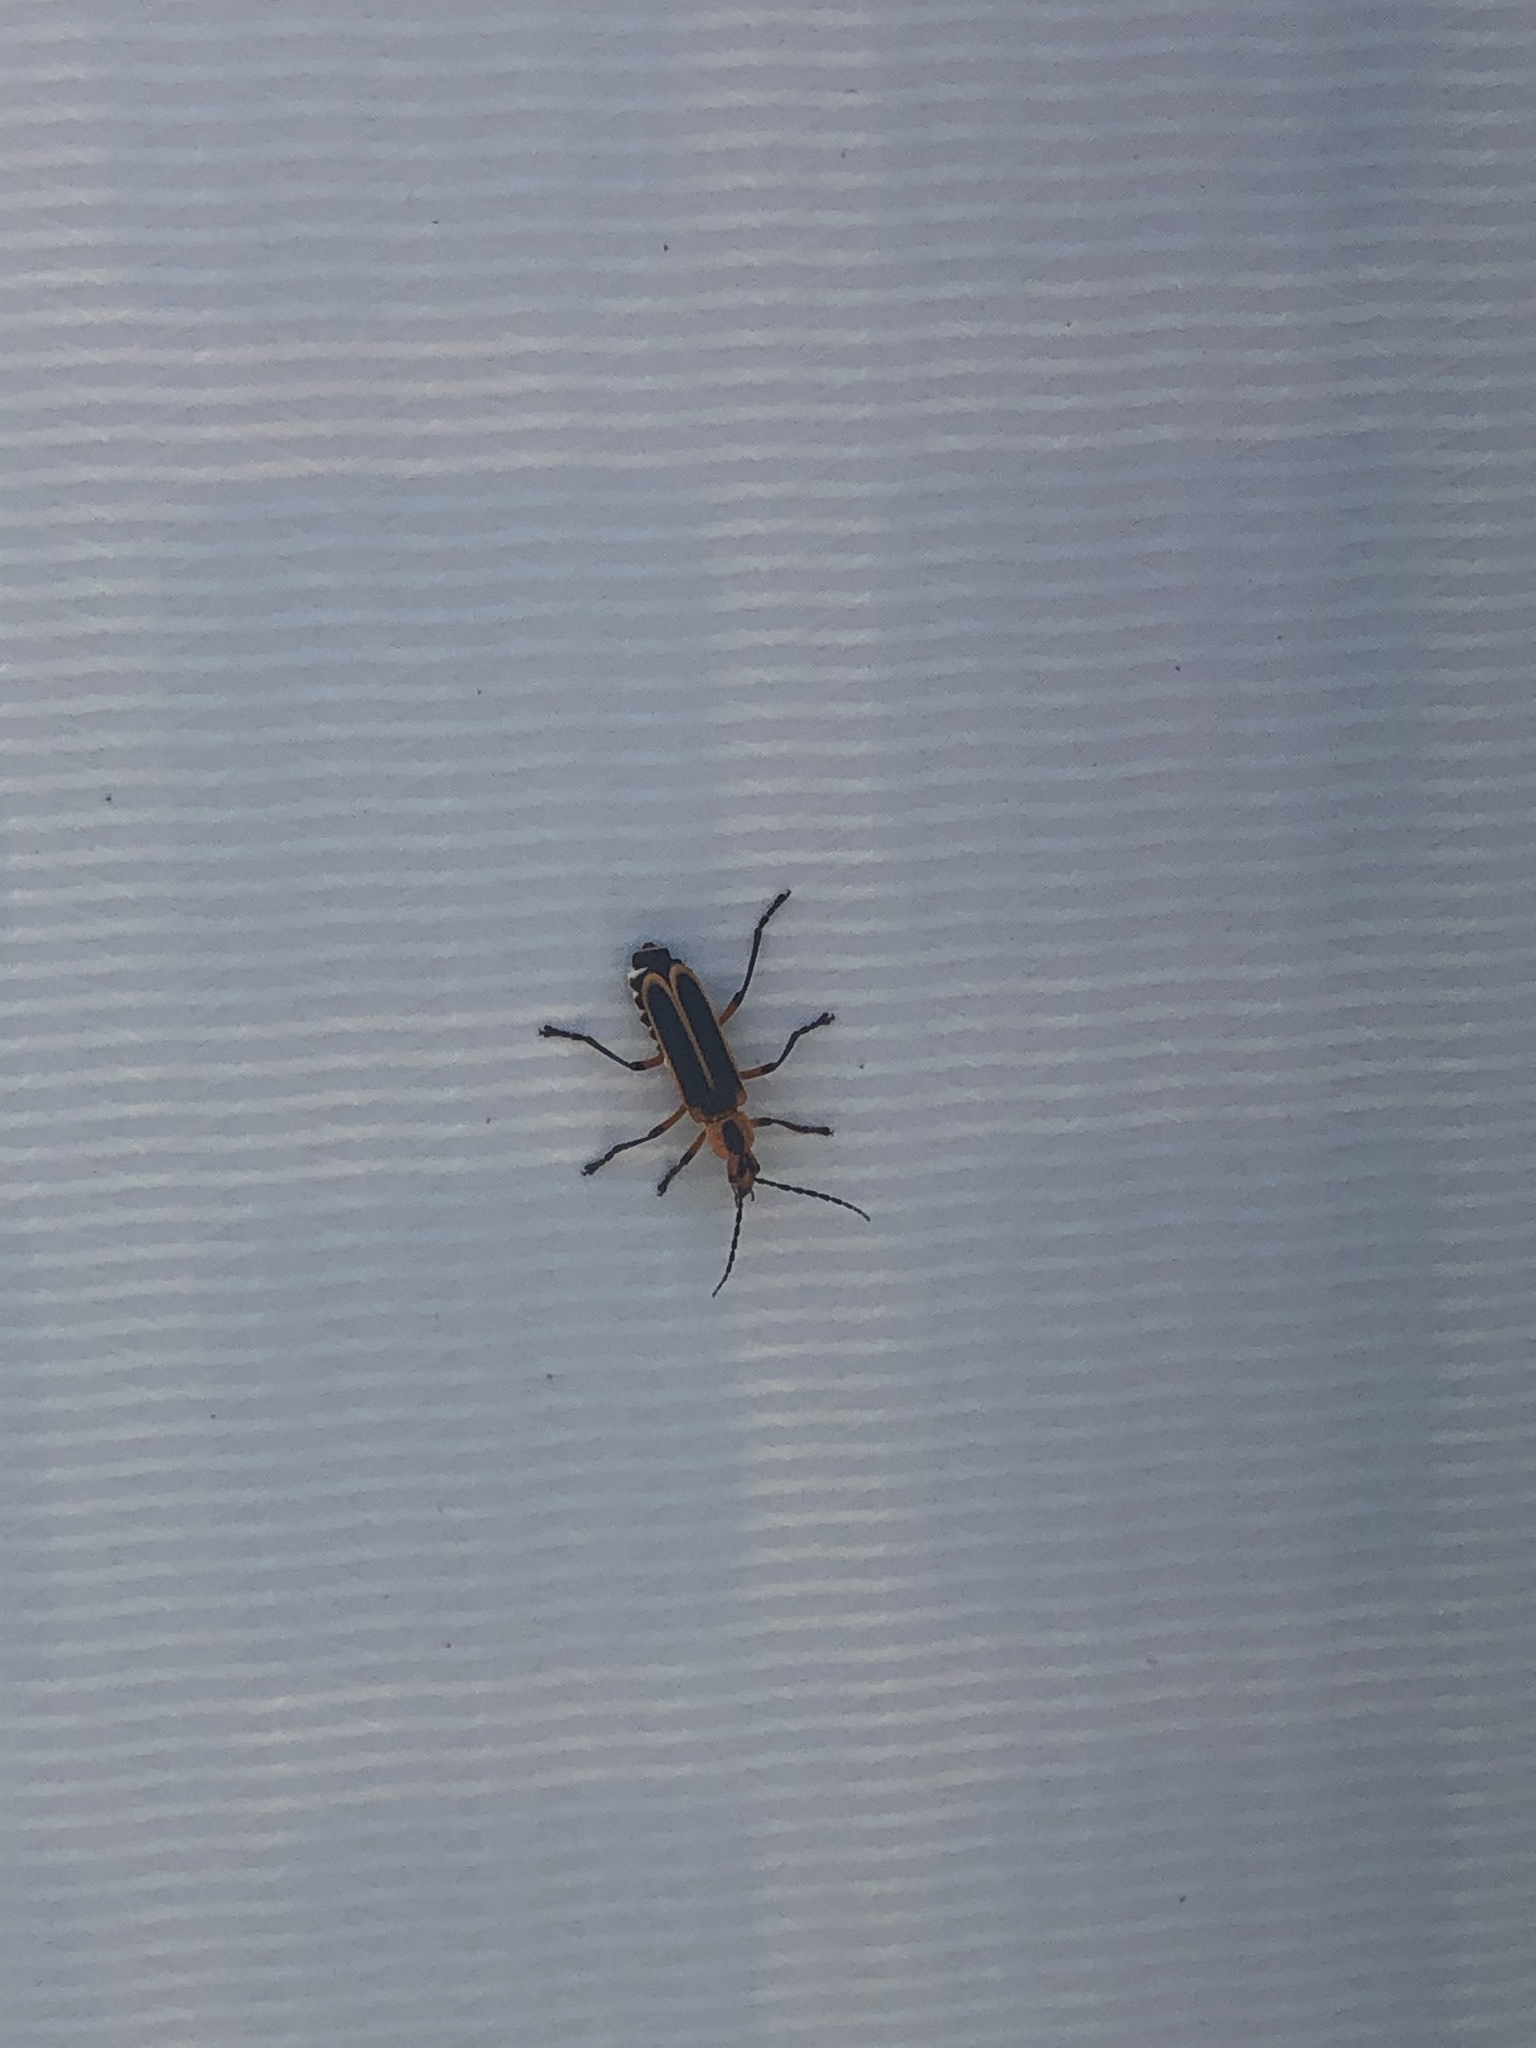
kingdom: Animalia
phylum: Arthropoda
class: Insecta
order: Coleoptera
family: Cantharidae
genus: Chauliognathus
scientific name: Chauliognathus marginatus
